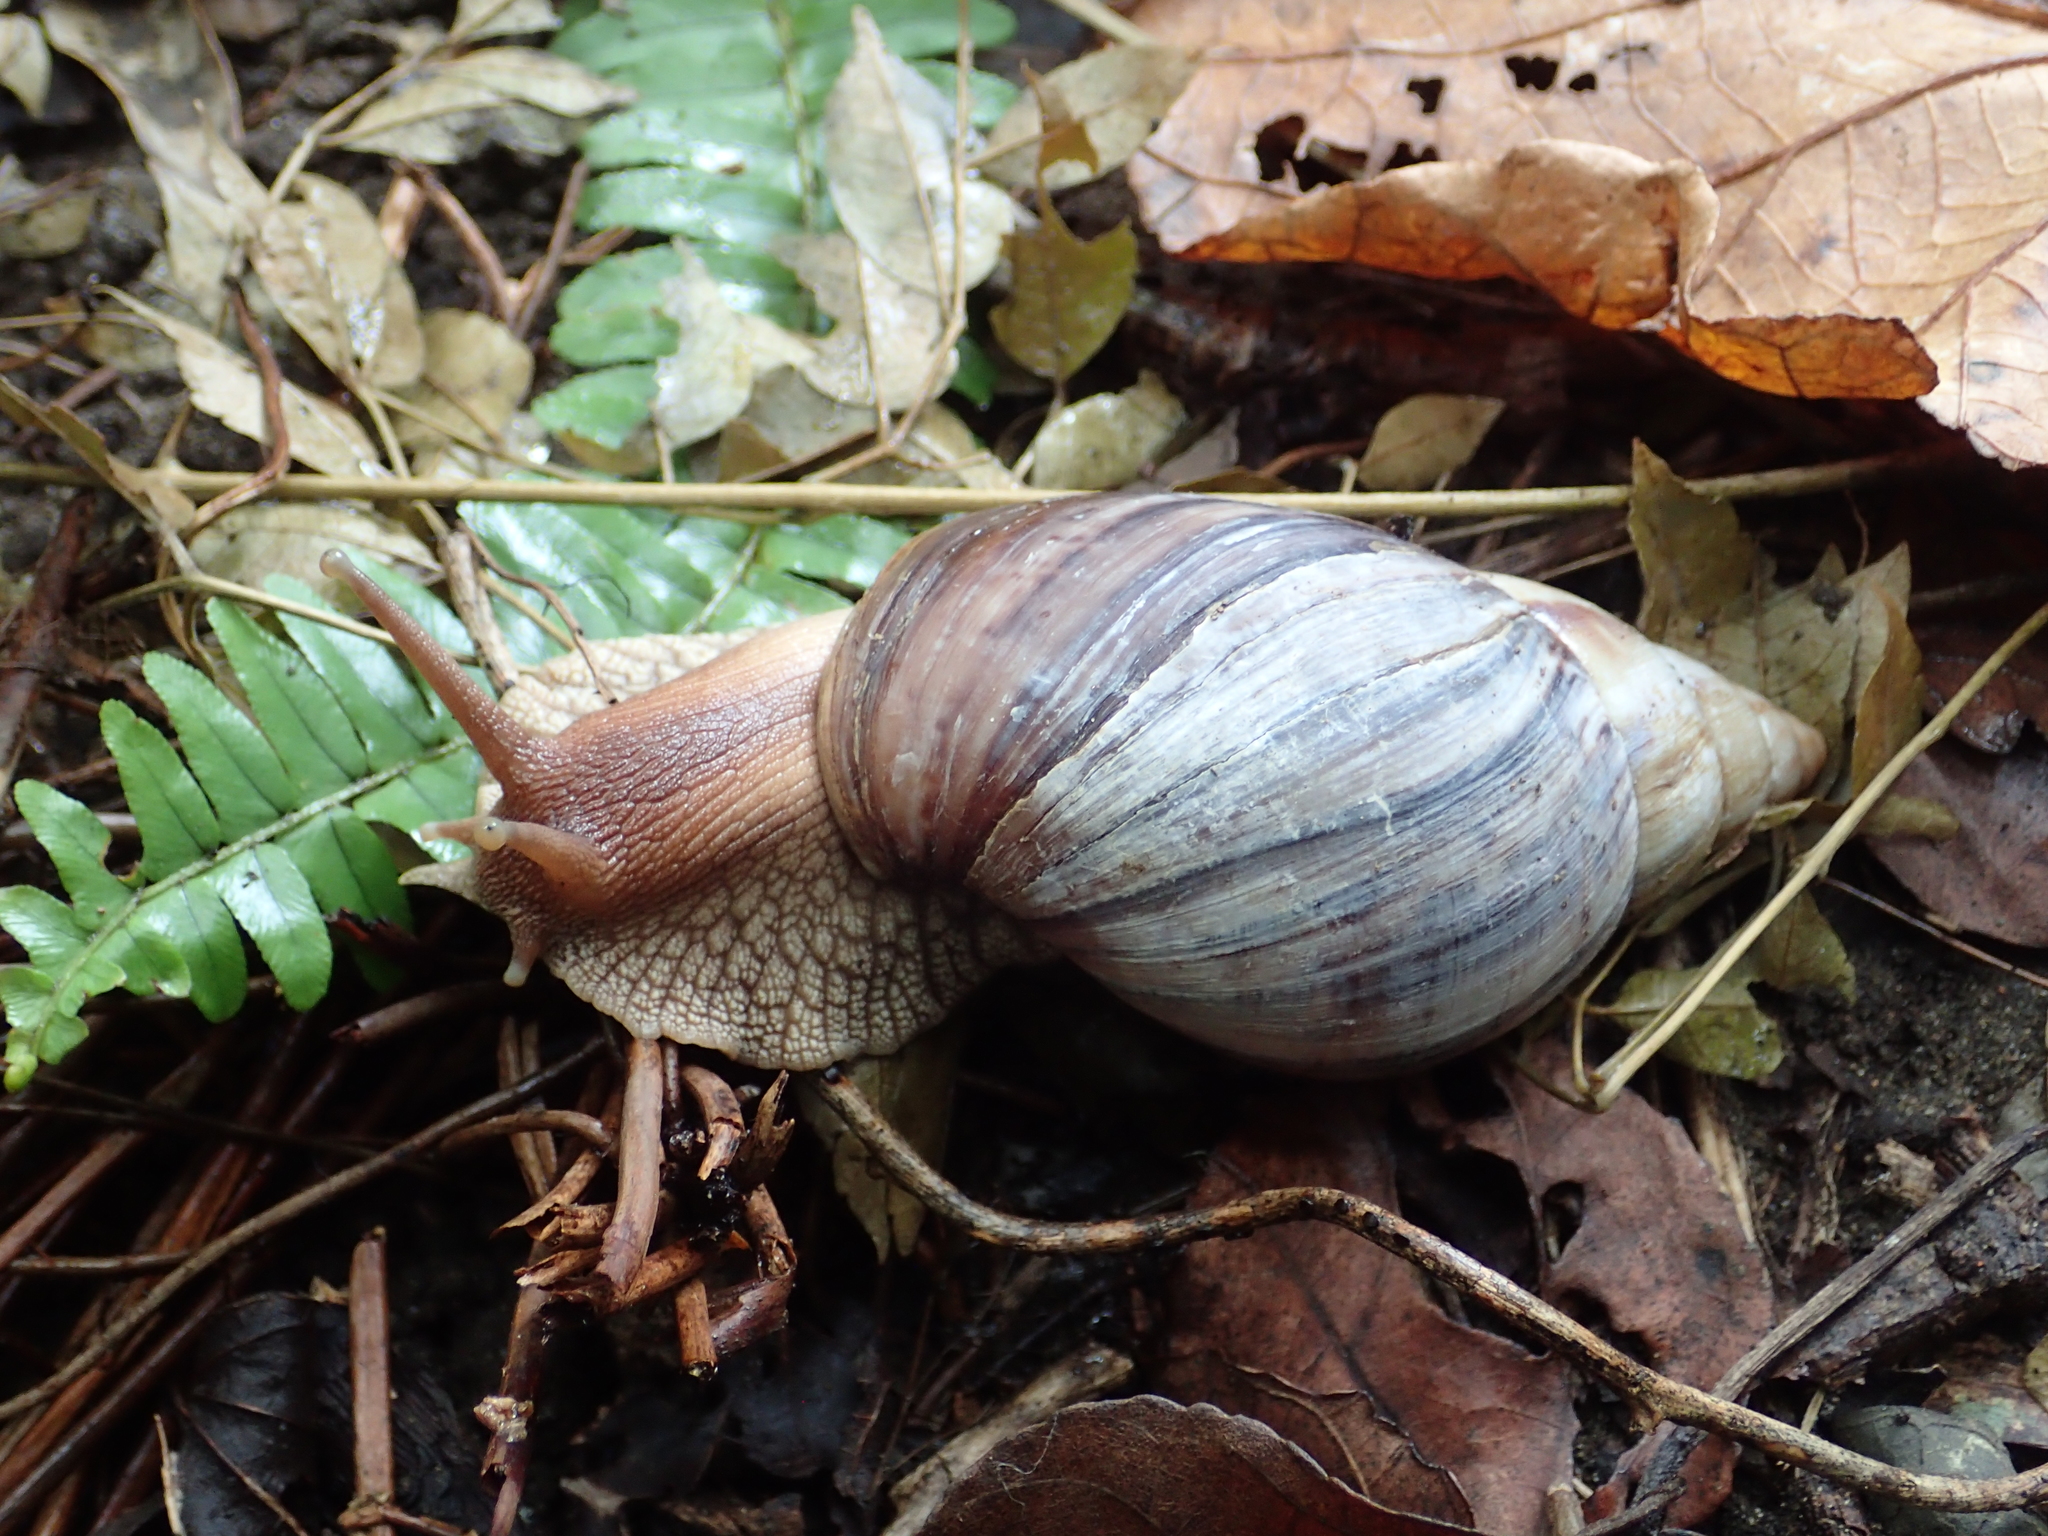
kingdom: Animalia
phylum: Mollusca
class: Gastropoda
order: Stylommatophora
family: Achatinidae
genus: Lissachatina
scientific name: Lissachatina immaculata
